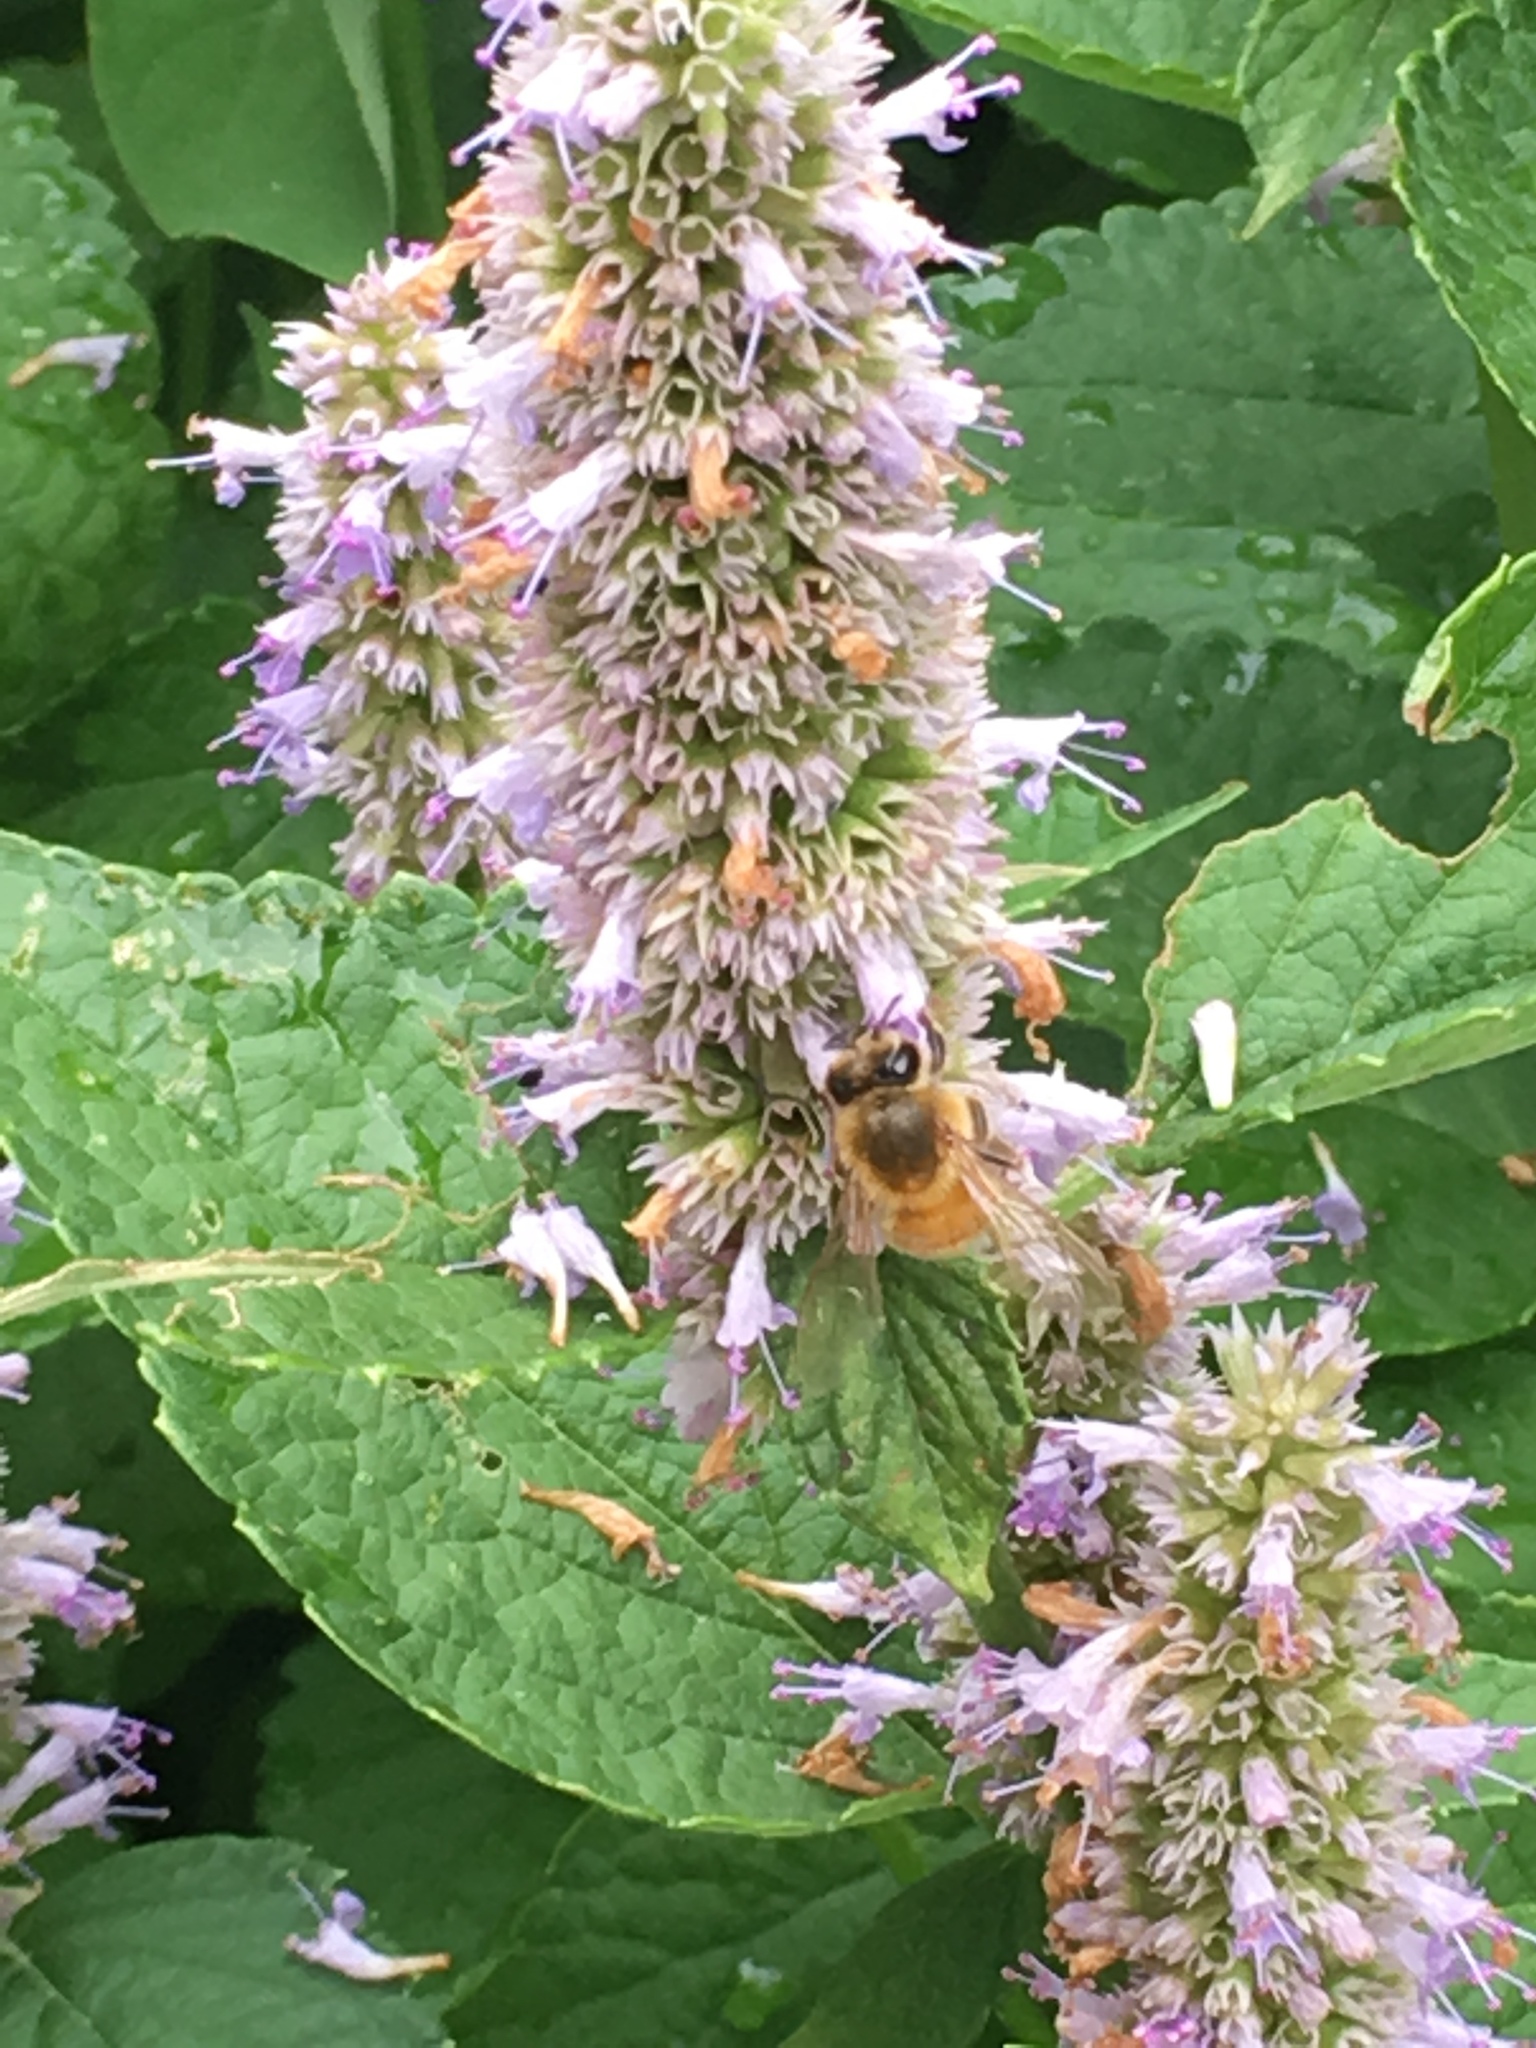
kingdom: Animalia
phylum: Arthropoda
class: Insecta
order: Hymenoptera
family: Apidae
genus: Apis
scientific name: Apis mellifera
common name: Honey bee
